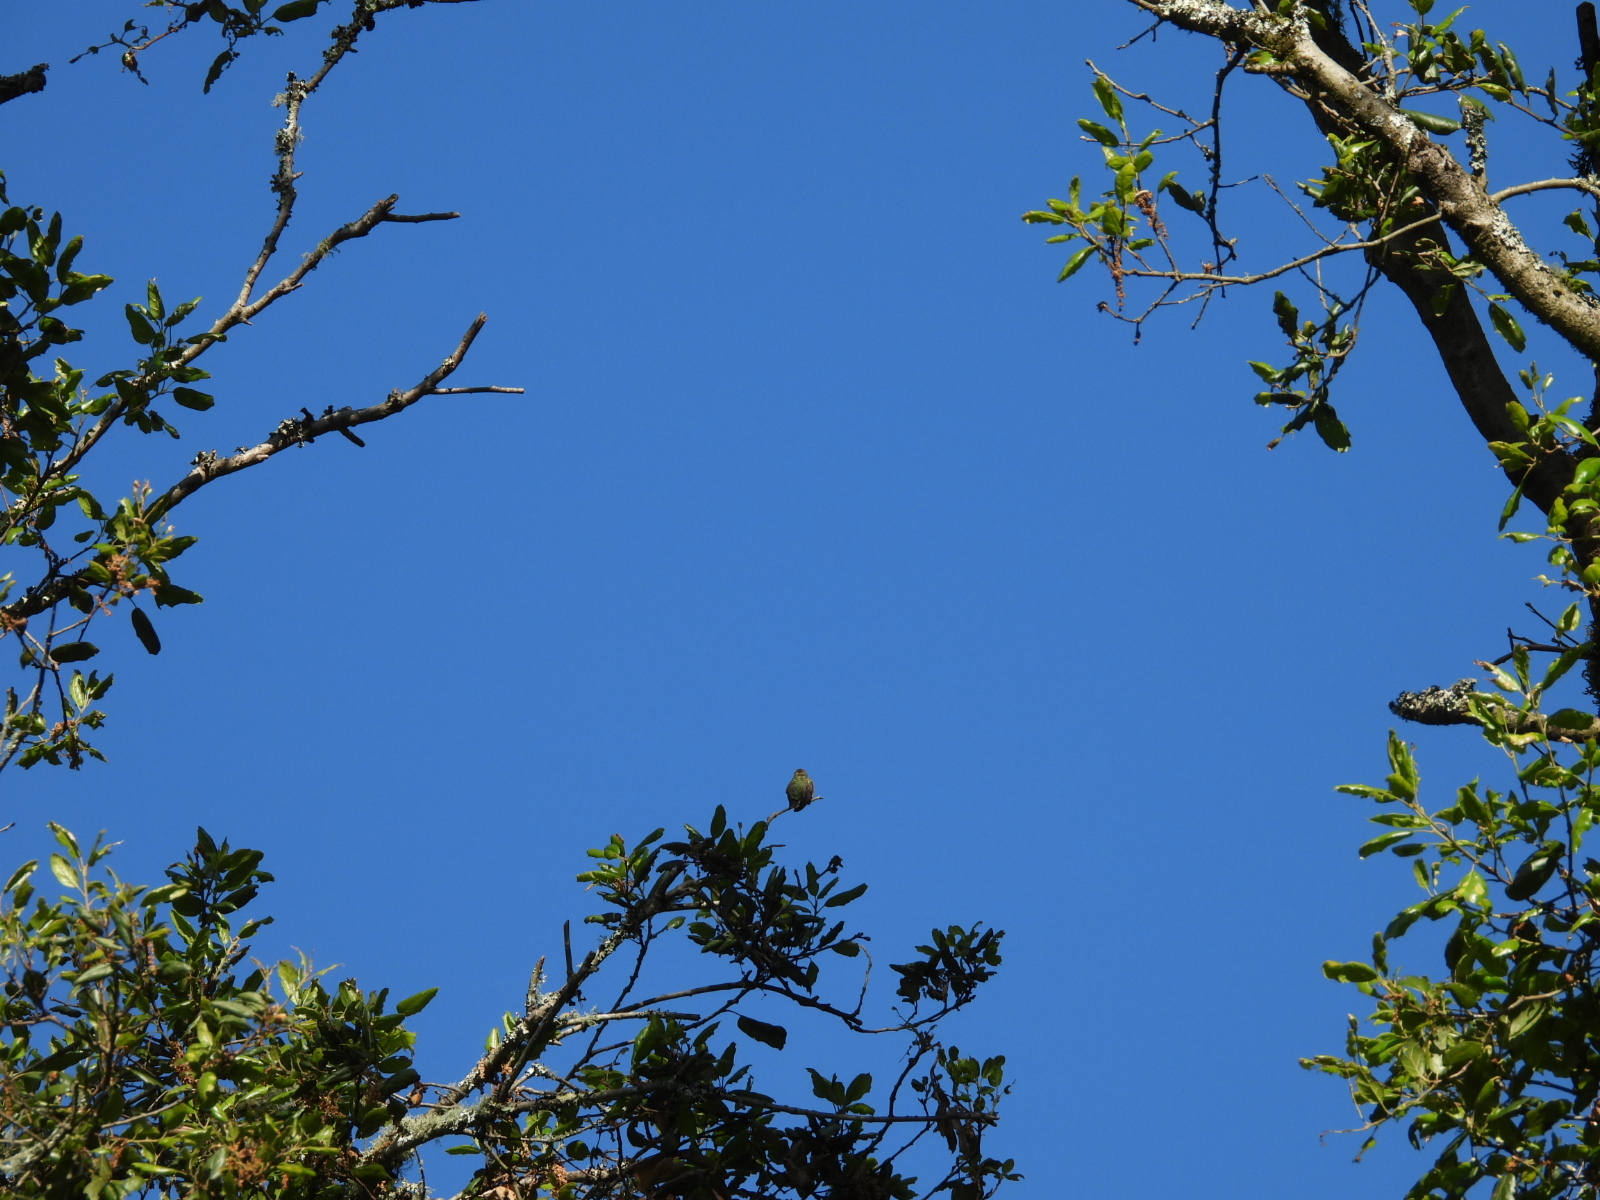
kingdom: Animalia
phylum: Chordata
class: Aves
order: Apodiformes
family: Trochilidae
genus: Calypte
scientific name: Calypte anna
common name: Anna's hummingbird
